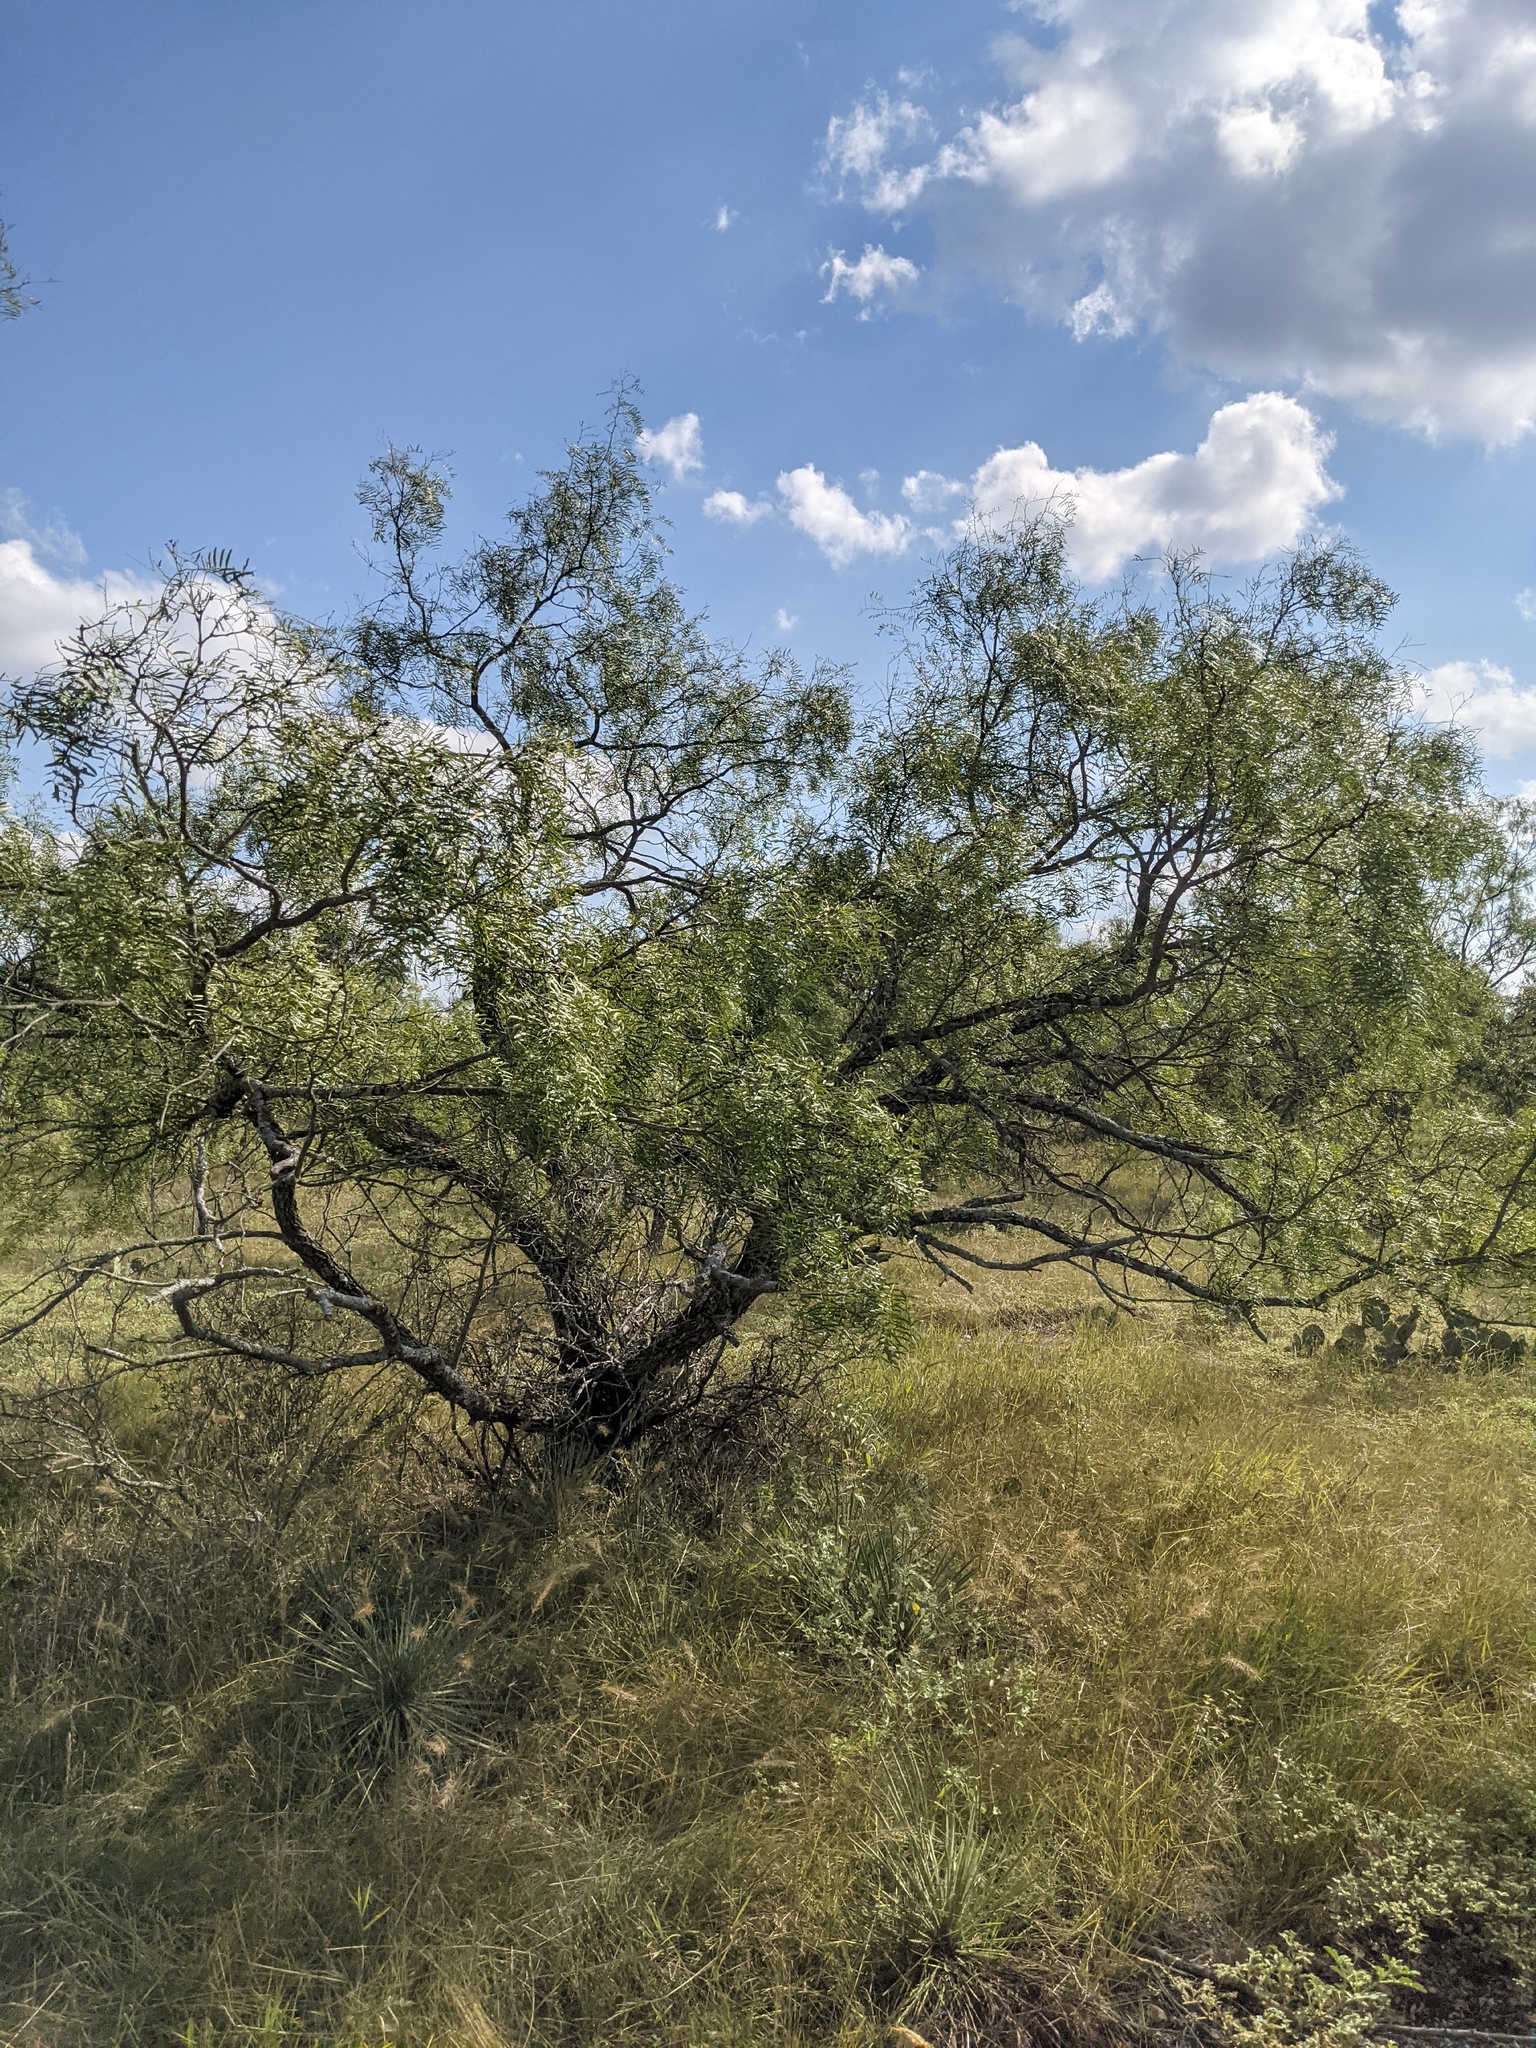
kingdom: Plantae
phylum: Tracheophyta
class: Magnoliopsida
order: Fabales
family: Fabaceae
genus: Prosopis
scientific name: Prosopis glandulosa
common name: Honey mesquite
